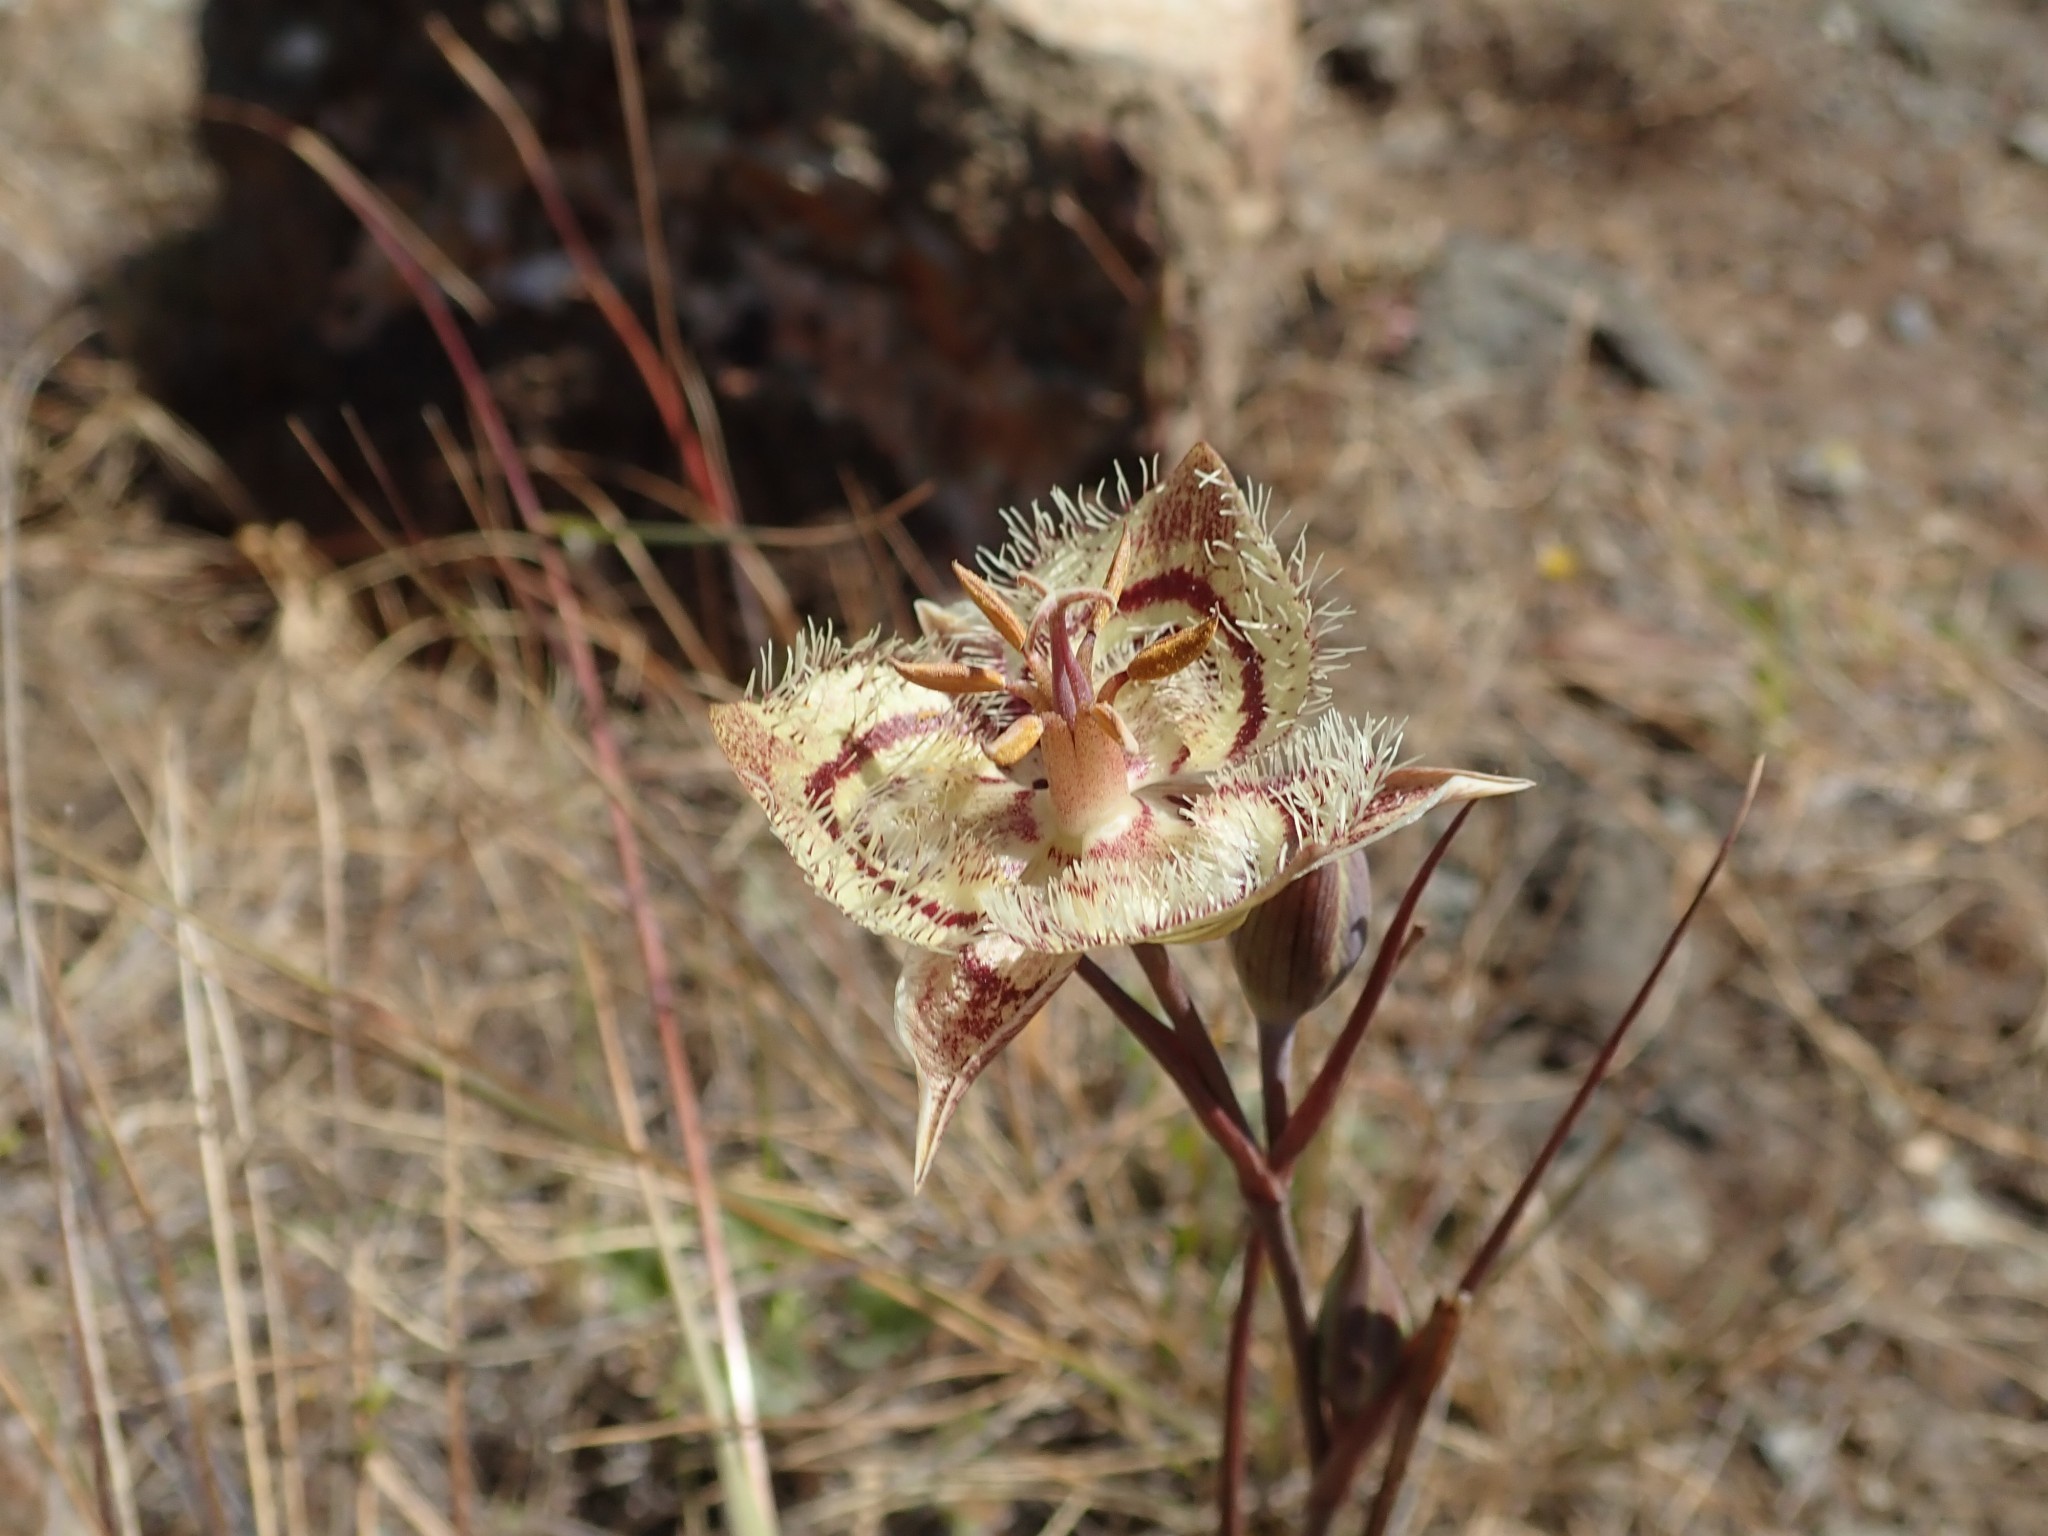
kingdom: Plantae
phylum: Tracheophyta
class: Liliopsida
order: Liliales
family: Liliaceae
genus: Calochortus
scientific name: Calochortus tiburonensis
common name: Tiburon mariposa-lily
